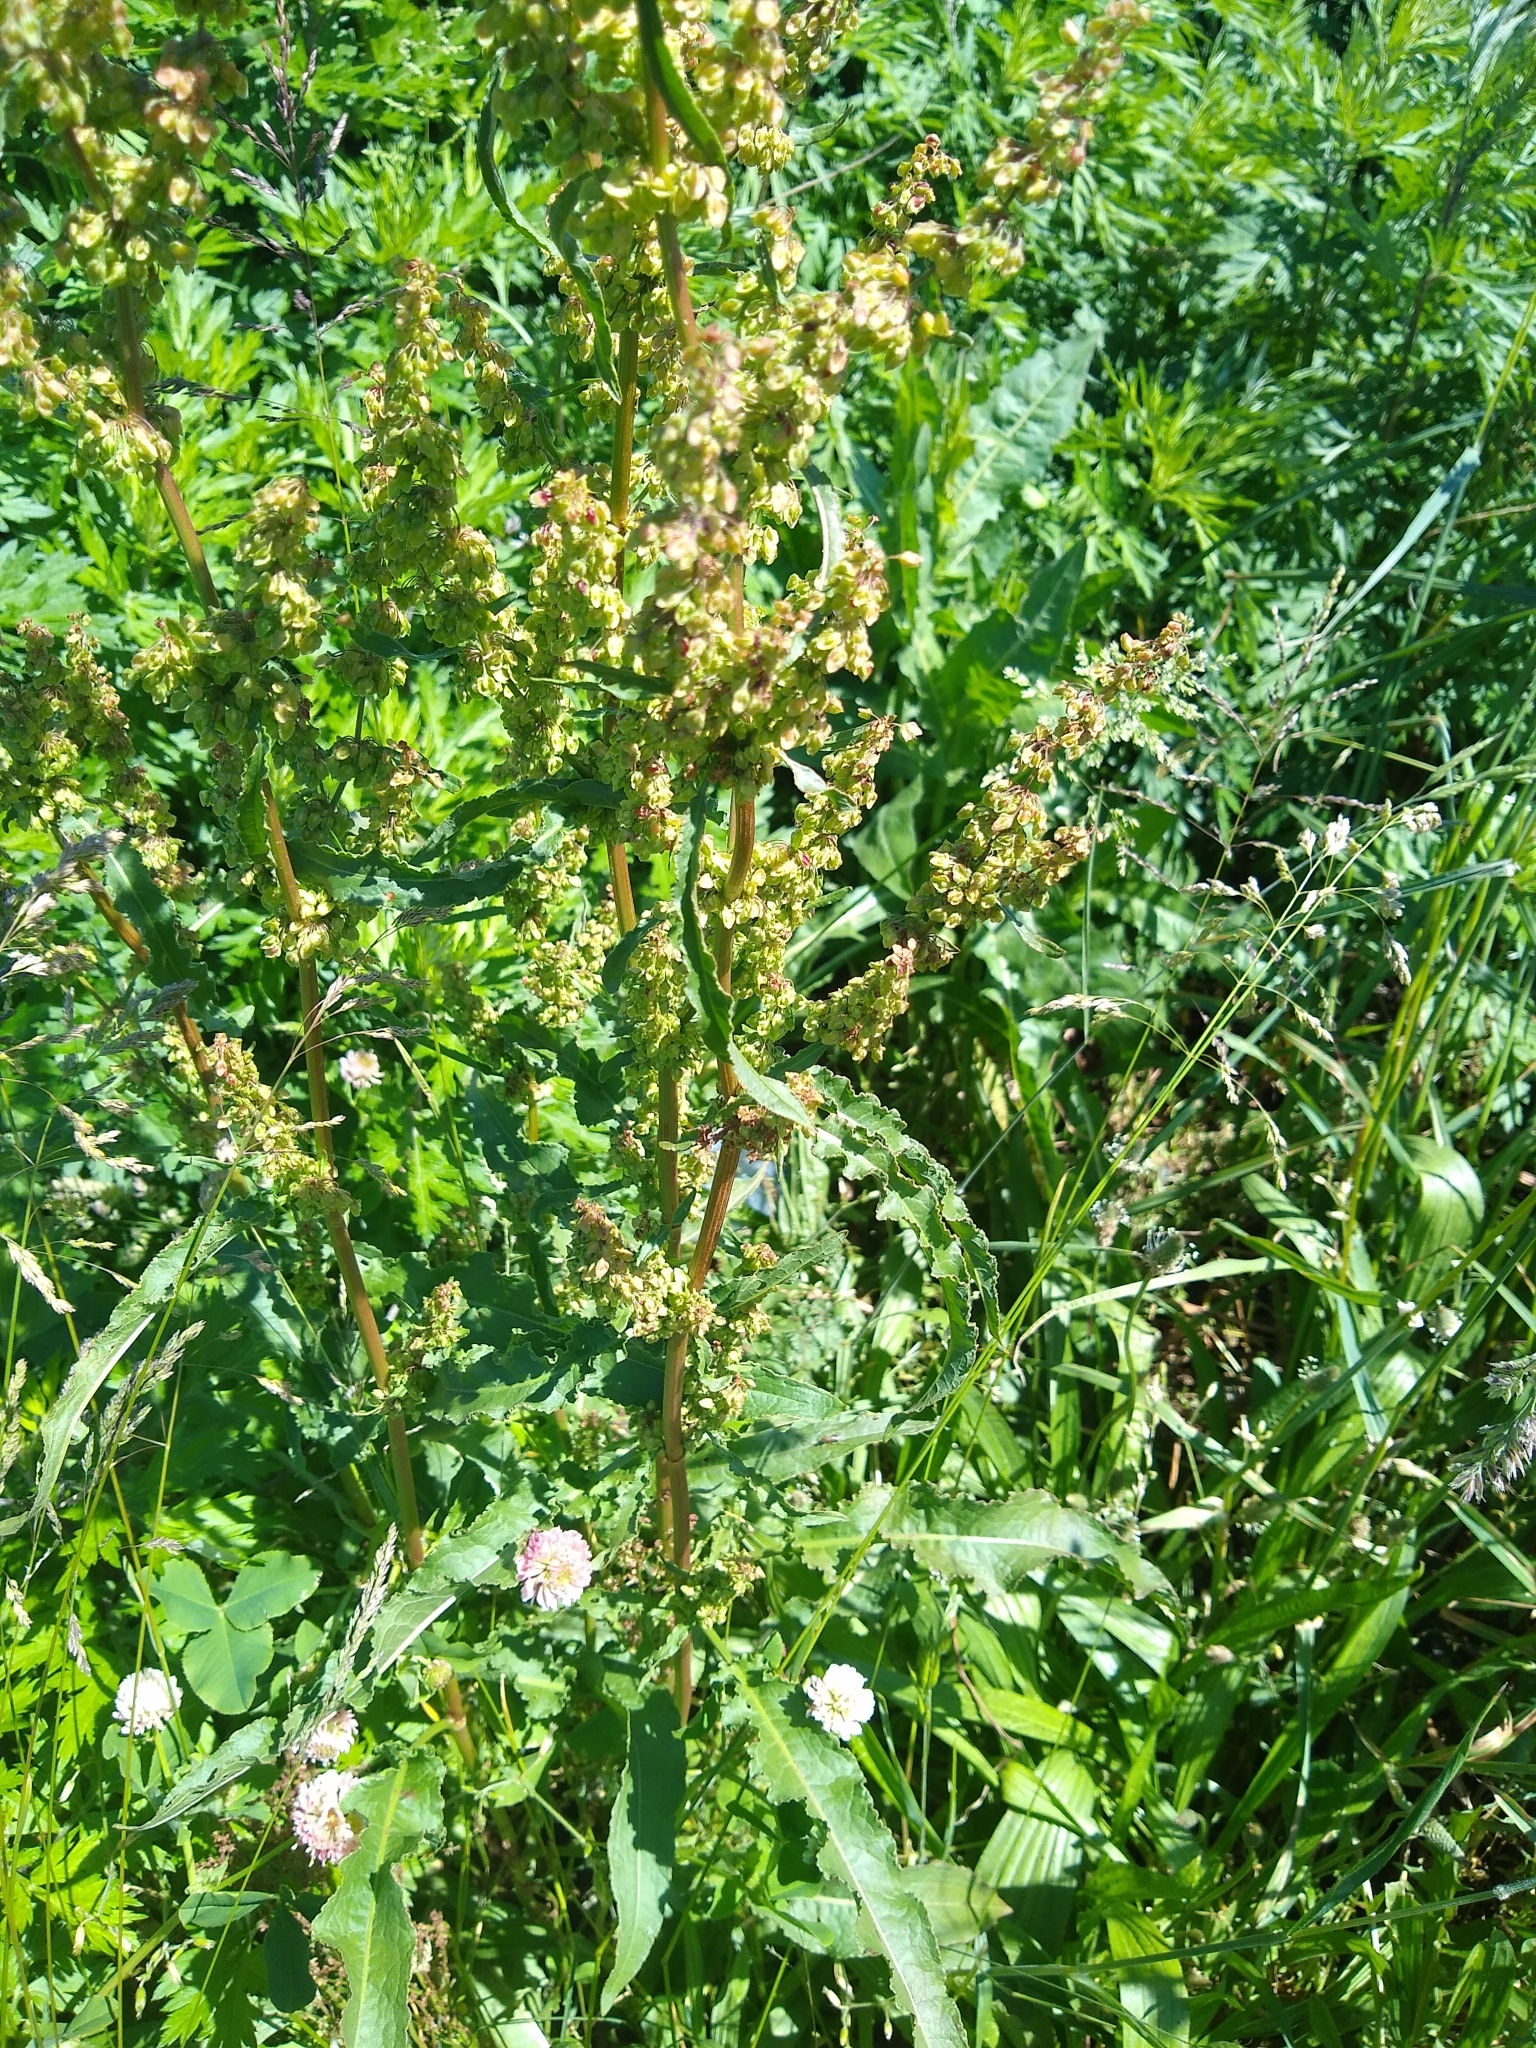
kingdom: Plantae
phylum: Tracheophyta
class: Magnoliopsida
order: Caryophyllales
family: Polygonaceae
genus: Rumex
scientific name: Rumex crispus
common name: Curled dock
